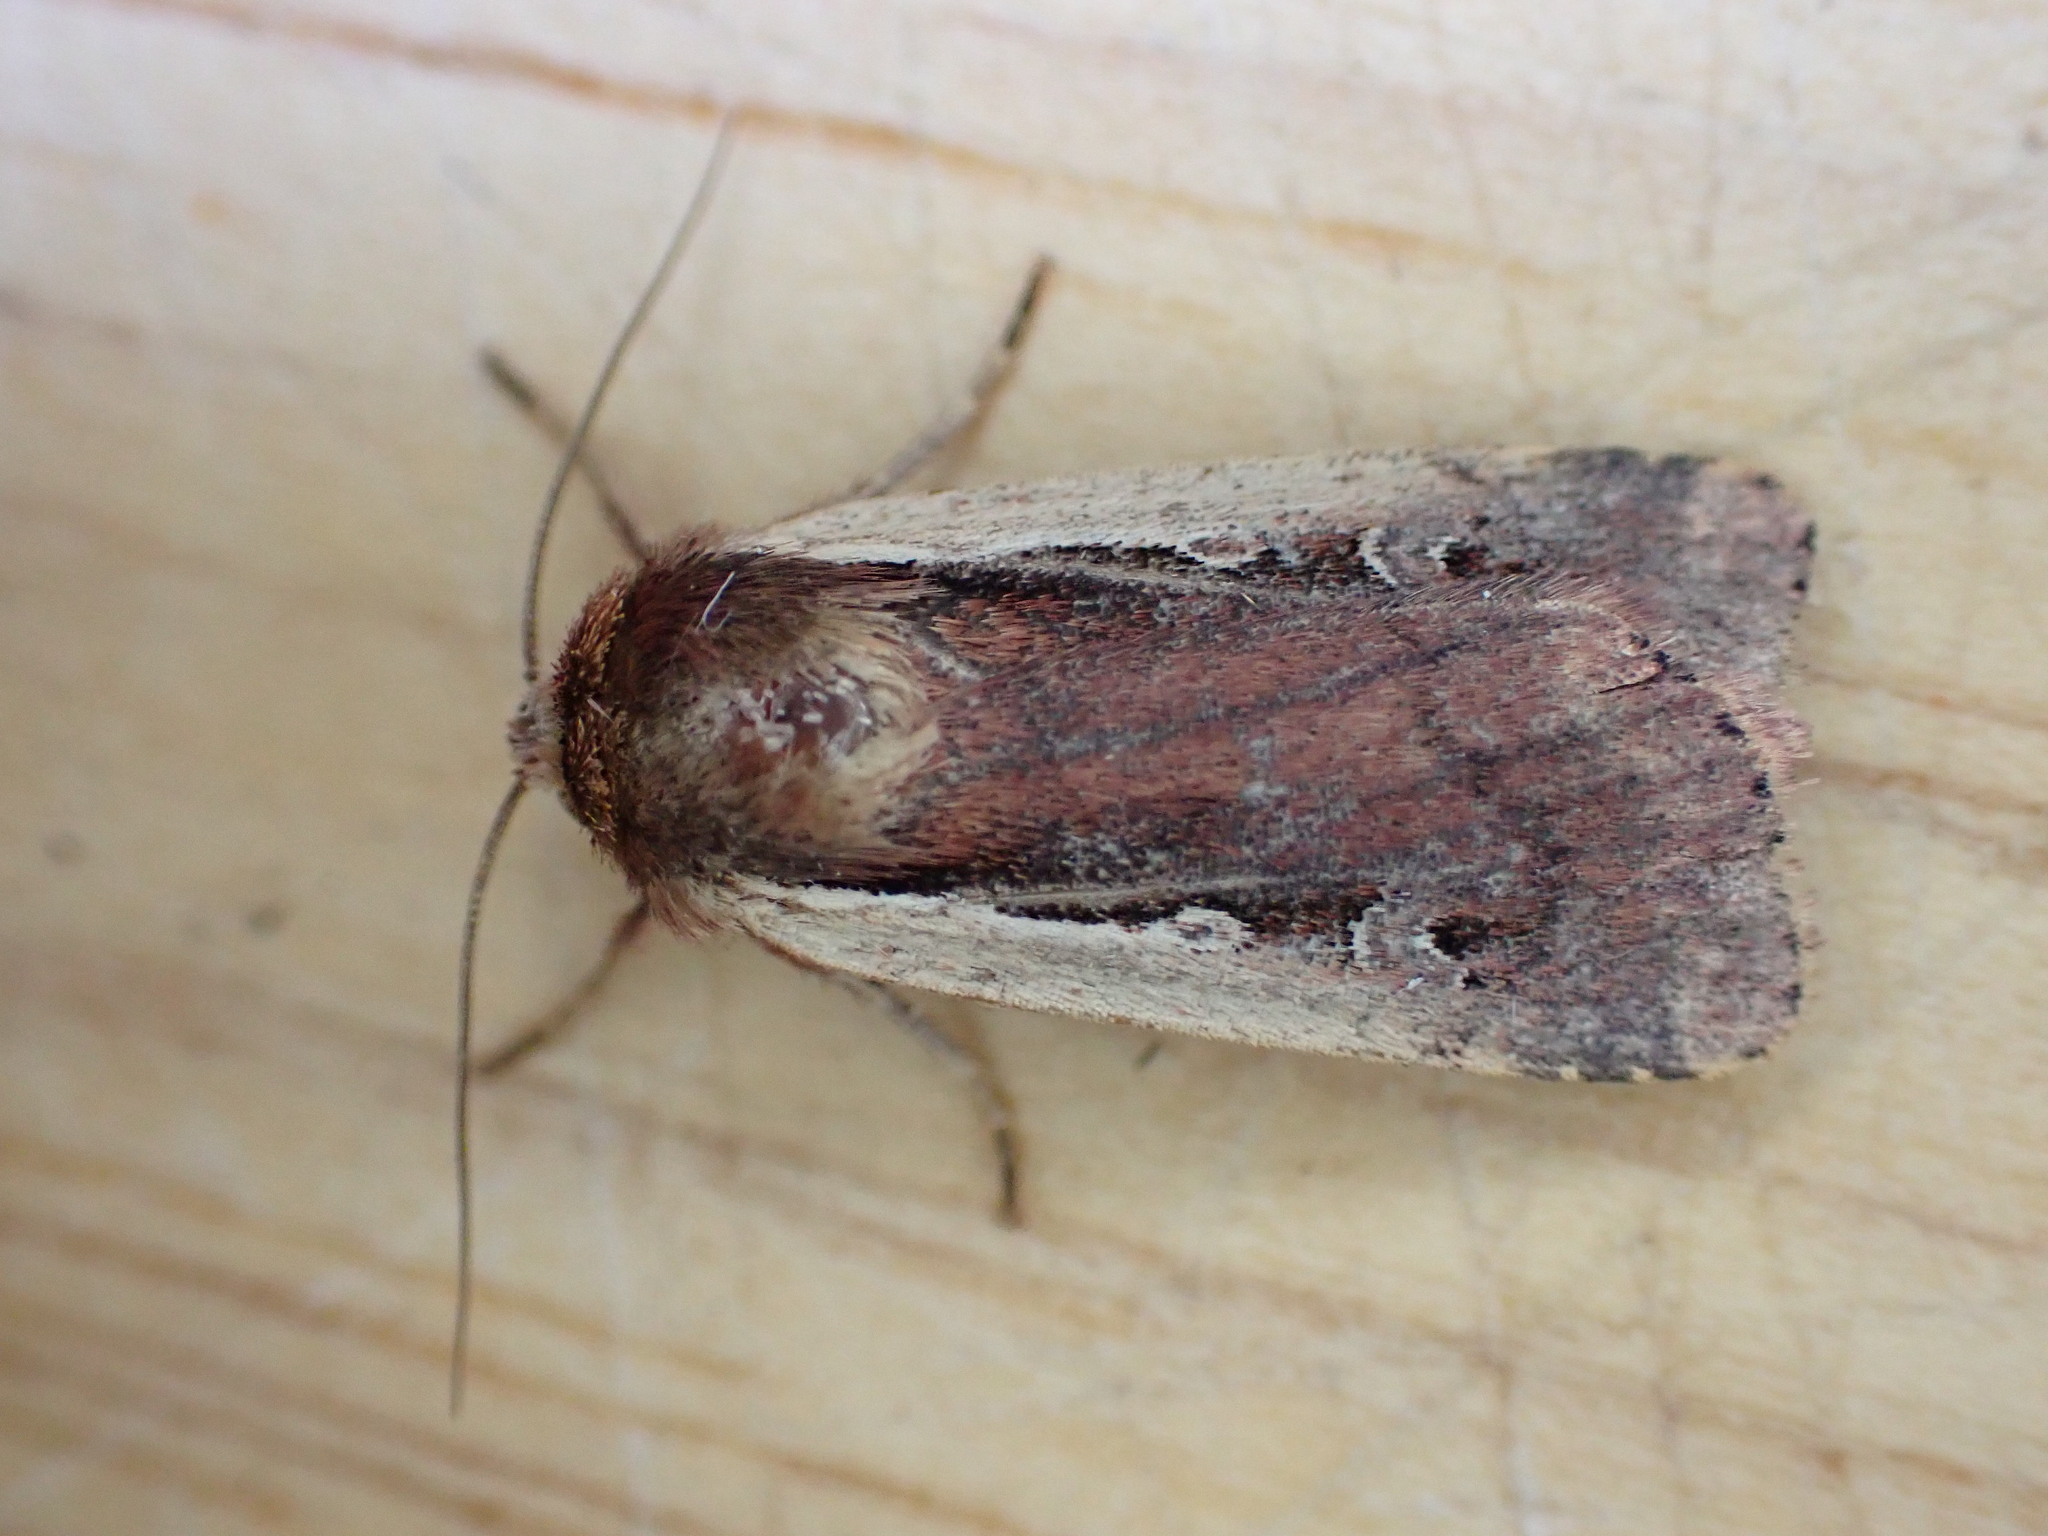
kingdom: Animalia
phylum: Arthropoda
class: Insecta
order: Lepidoptera
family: Noctuidae
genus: Ochropleura
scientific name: Ochropleura plecta
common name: Flame shoulder
